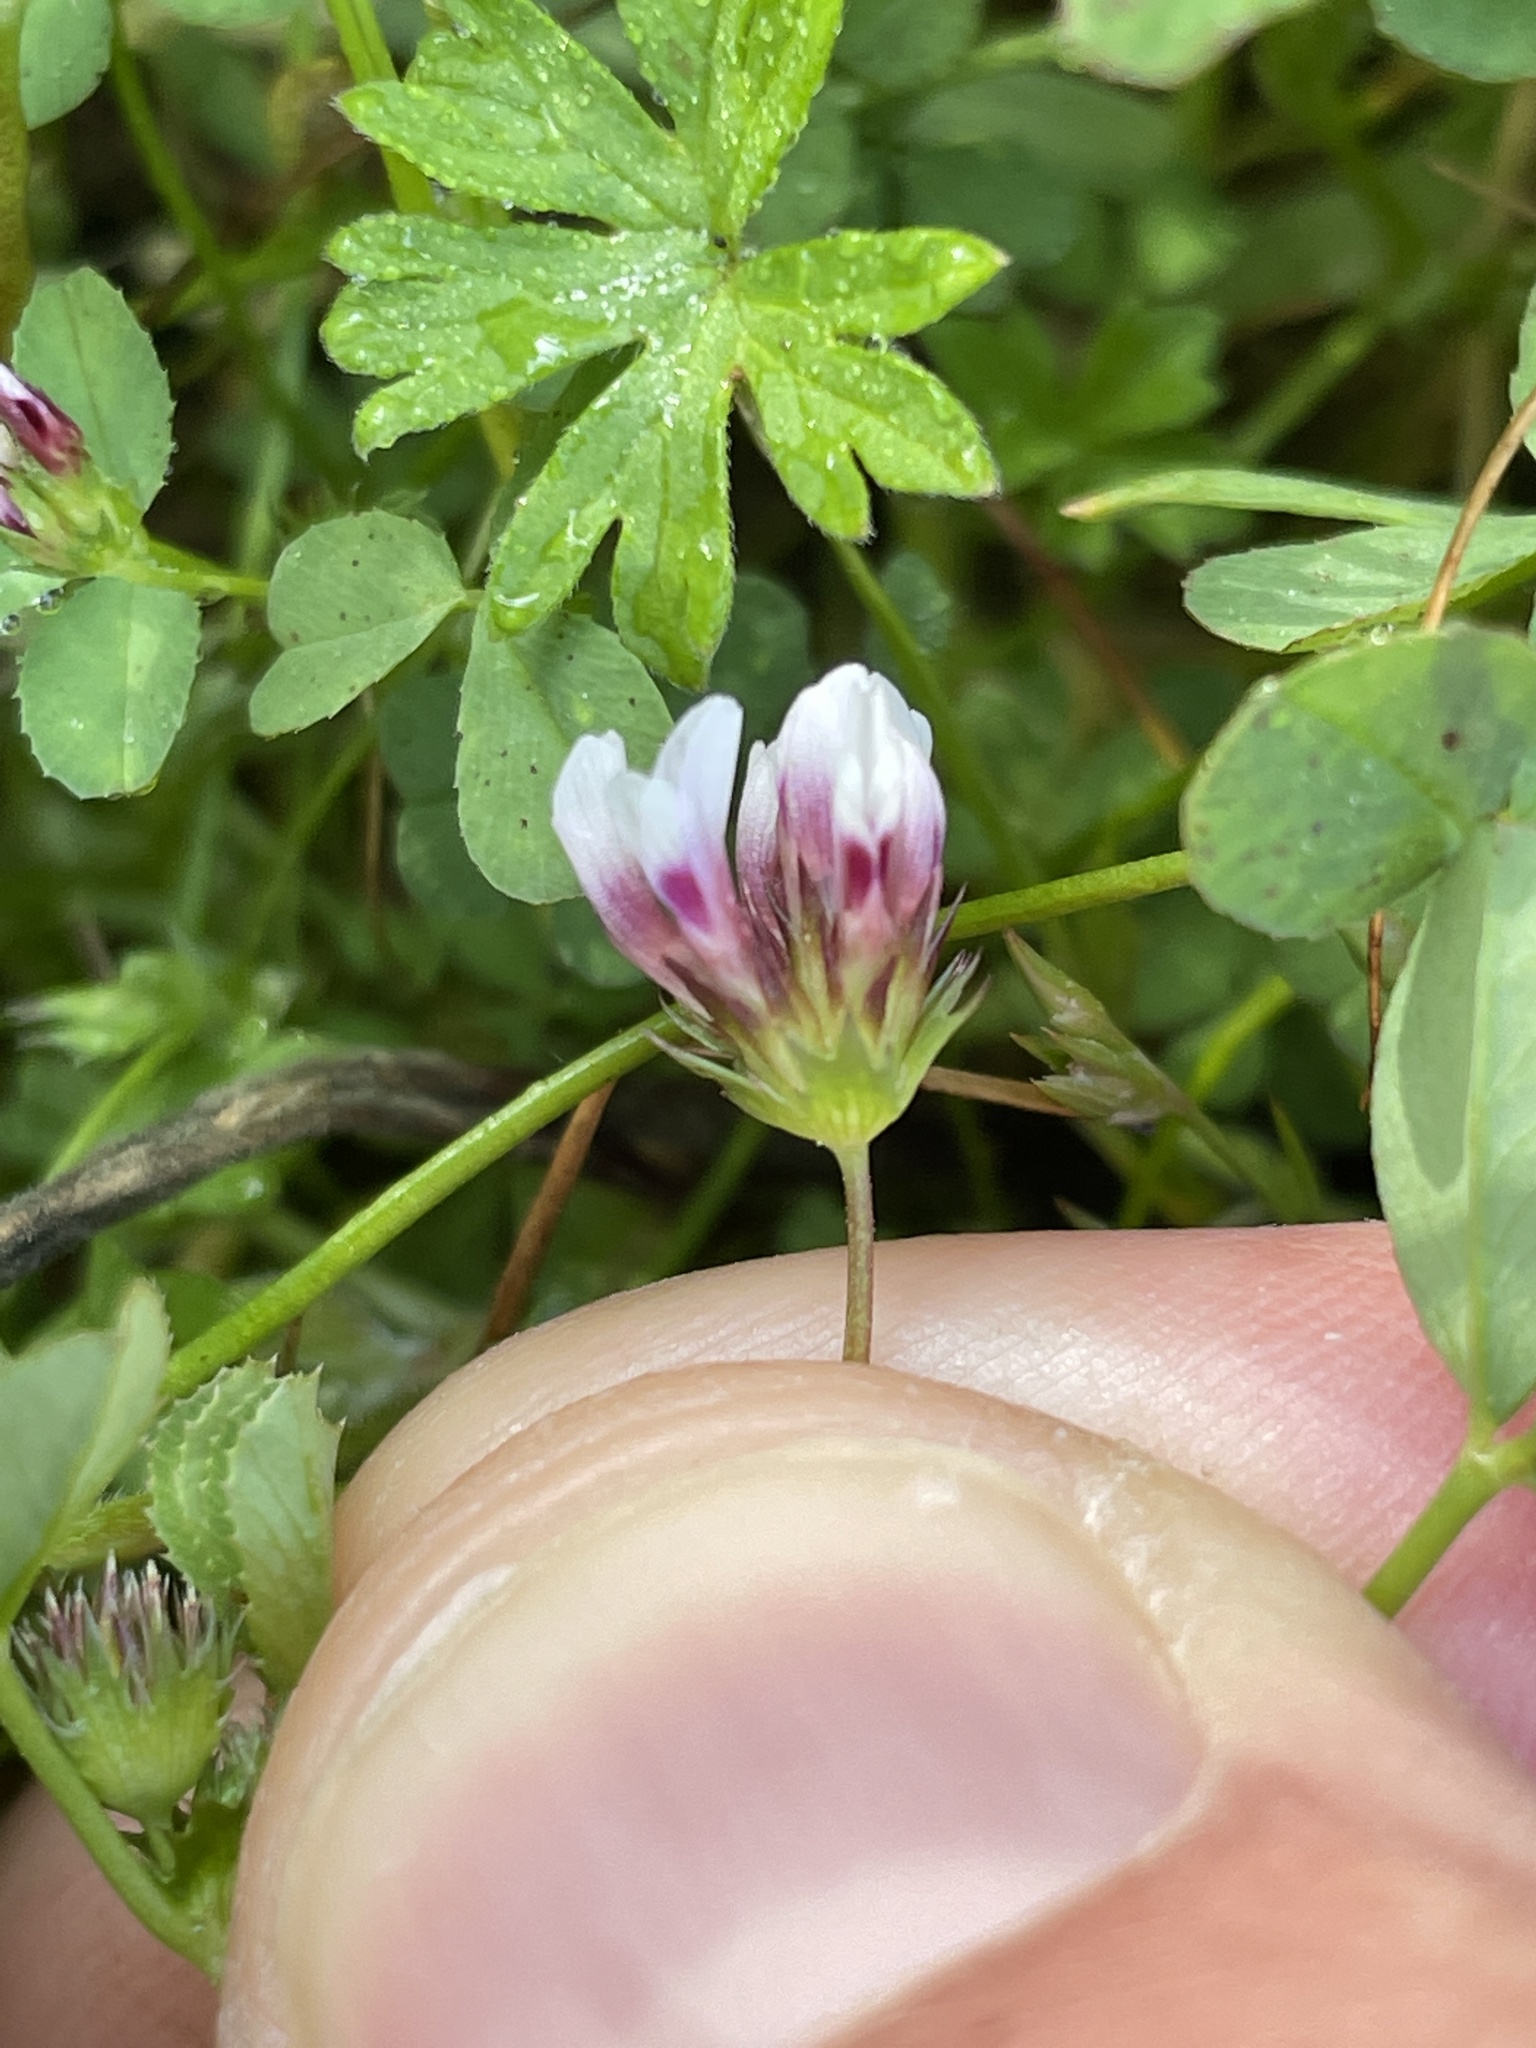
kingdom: Plantae
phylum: Tracheophyta
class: Magnoliopsida
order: Fabales
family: Fabaceae
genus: Trifolium
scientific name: Trifolium variegatum
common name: Whitetip clover
